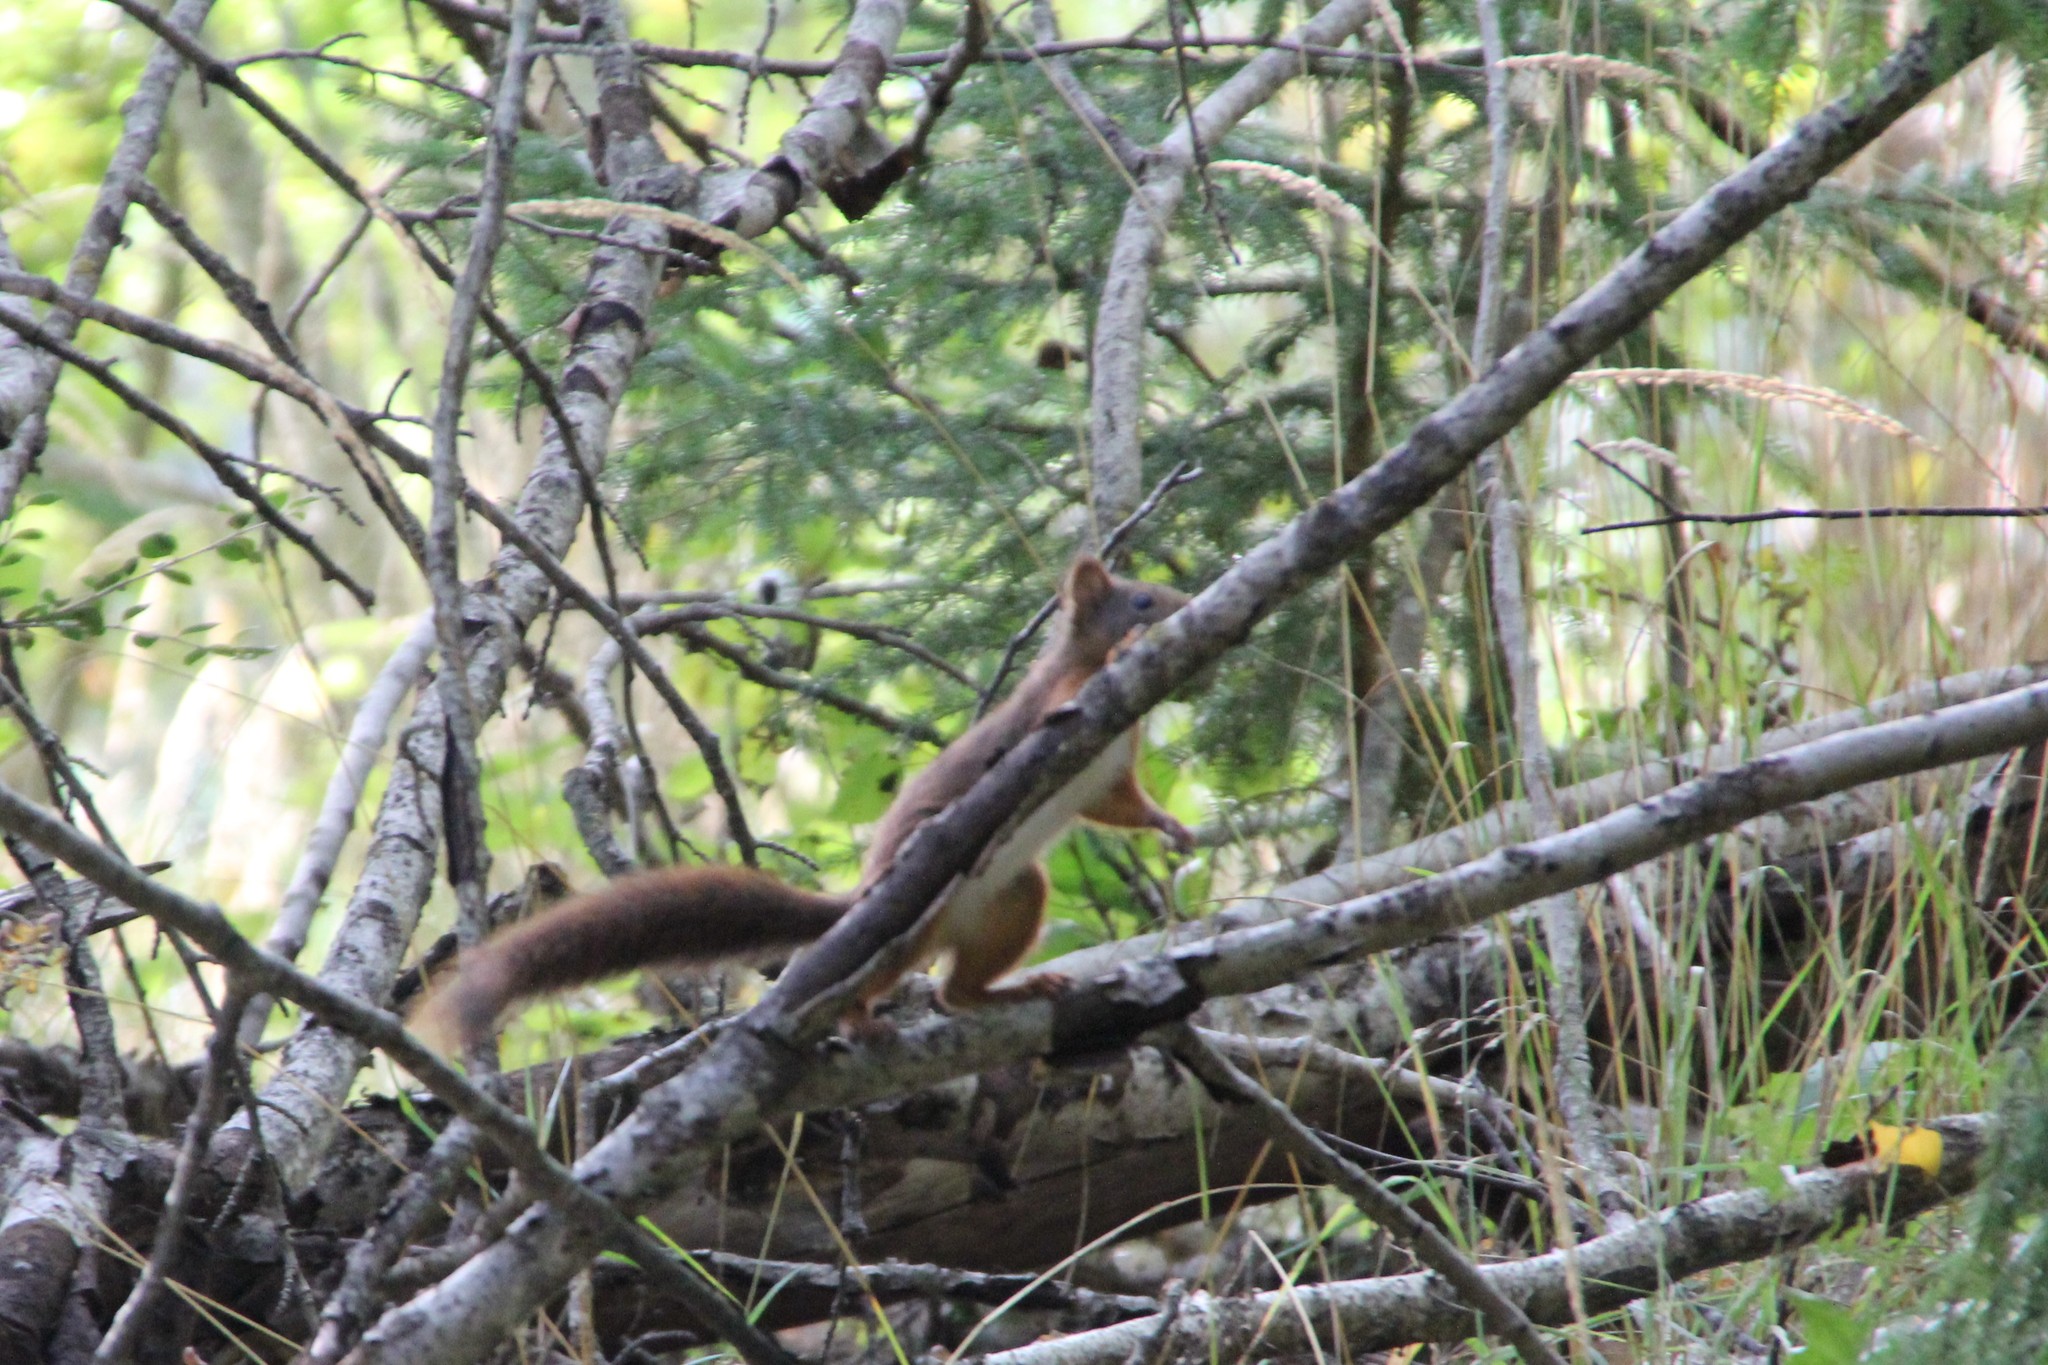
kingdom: Animalia
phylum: Chordata
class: Mammalia
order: Rodentia
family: Sciuridae
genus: Sciurus
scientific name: Sciurus vulgaris
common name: Eurasian red squirrel
